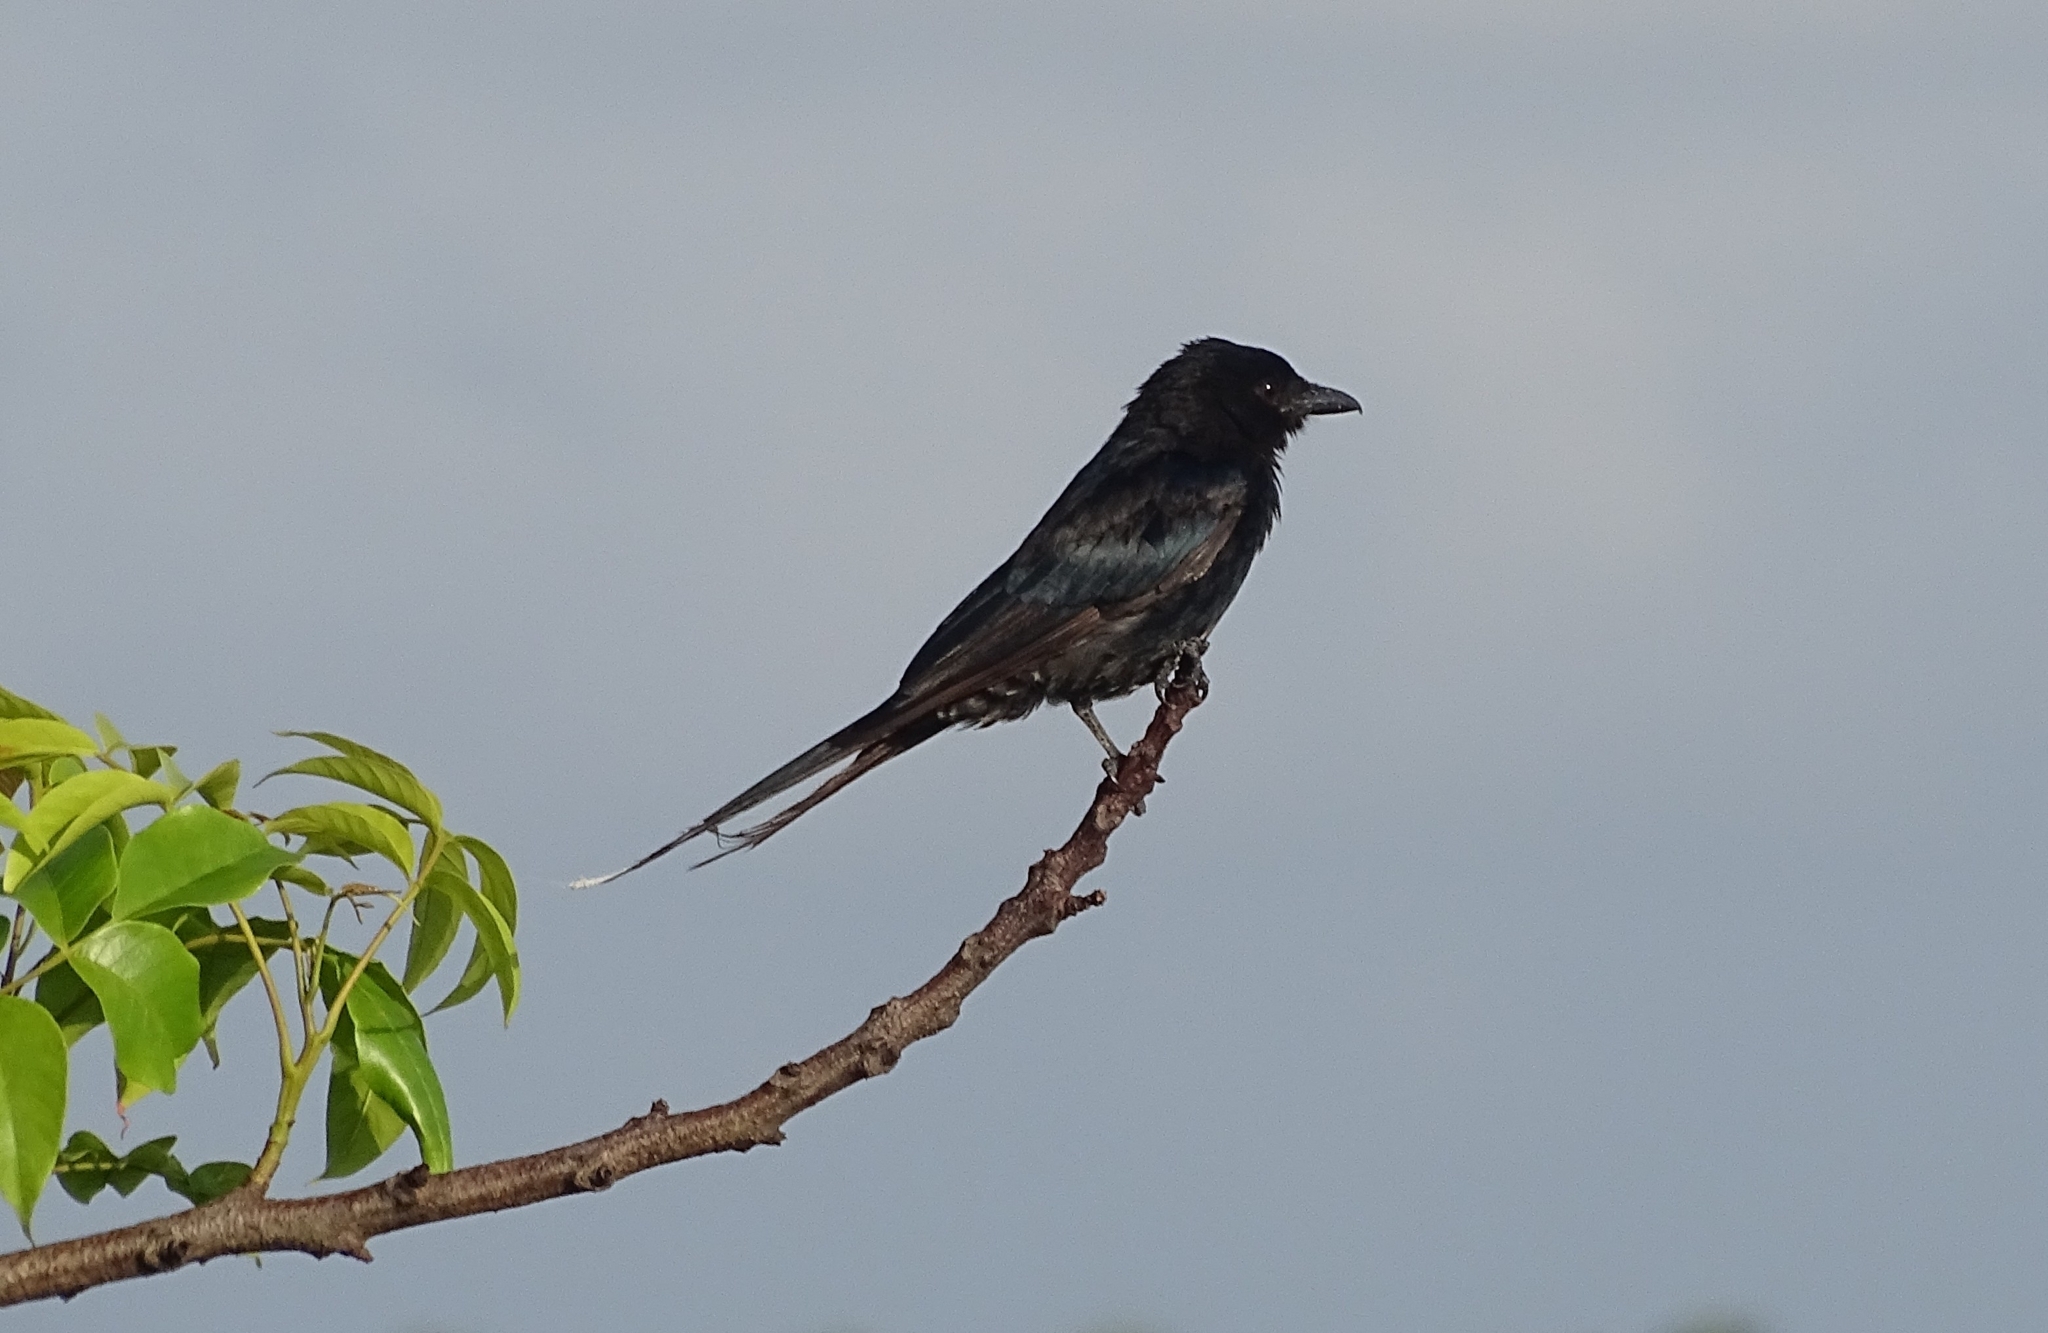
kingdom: Animalia
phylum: Chordata
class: Aves
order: Passeriformes
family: Dicruridae
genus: Dicrurus
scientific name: Dicrurus macrocercus
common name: Black drongo
